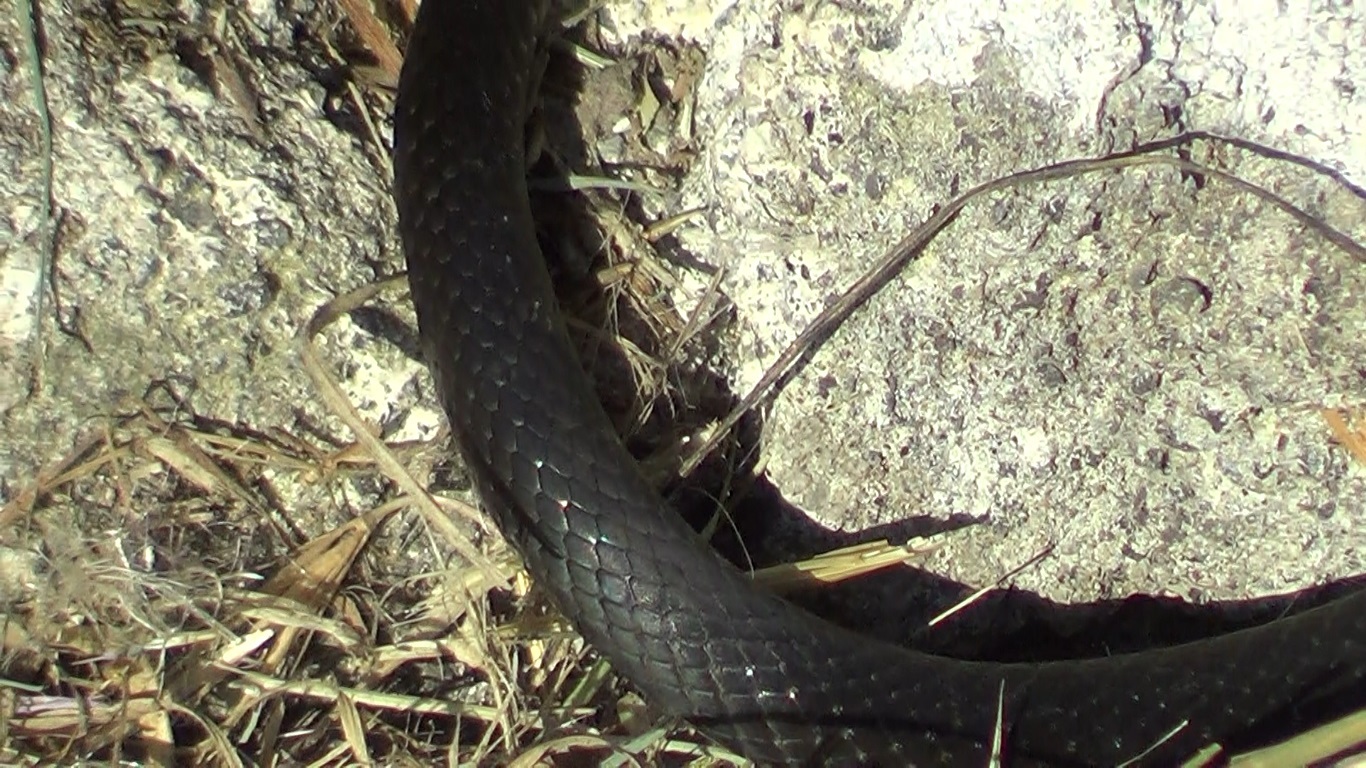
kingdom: Animalia
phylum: Chordata
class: Squamata
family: Colubridae
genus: Hierophis
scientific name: Hierophis viridiflavus
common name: Green whip snake
